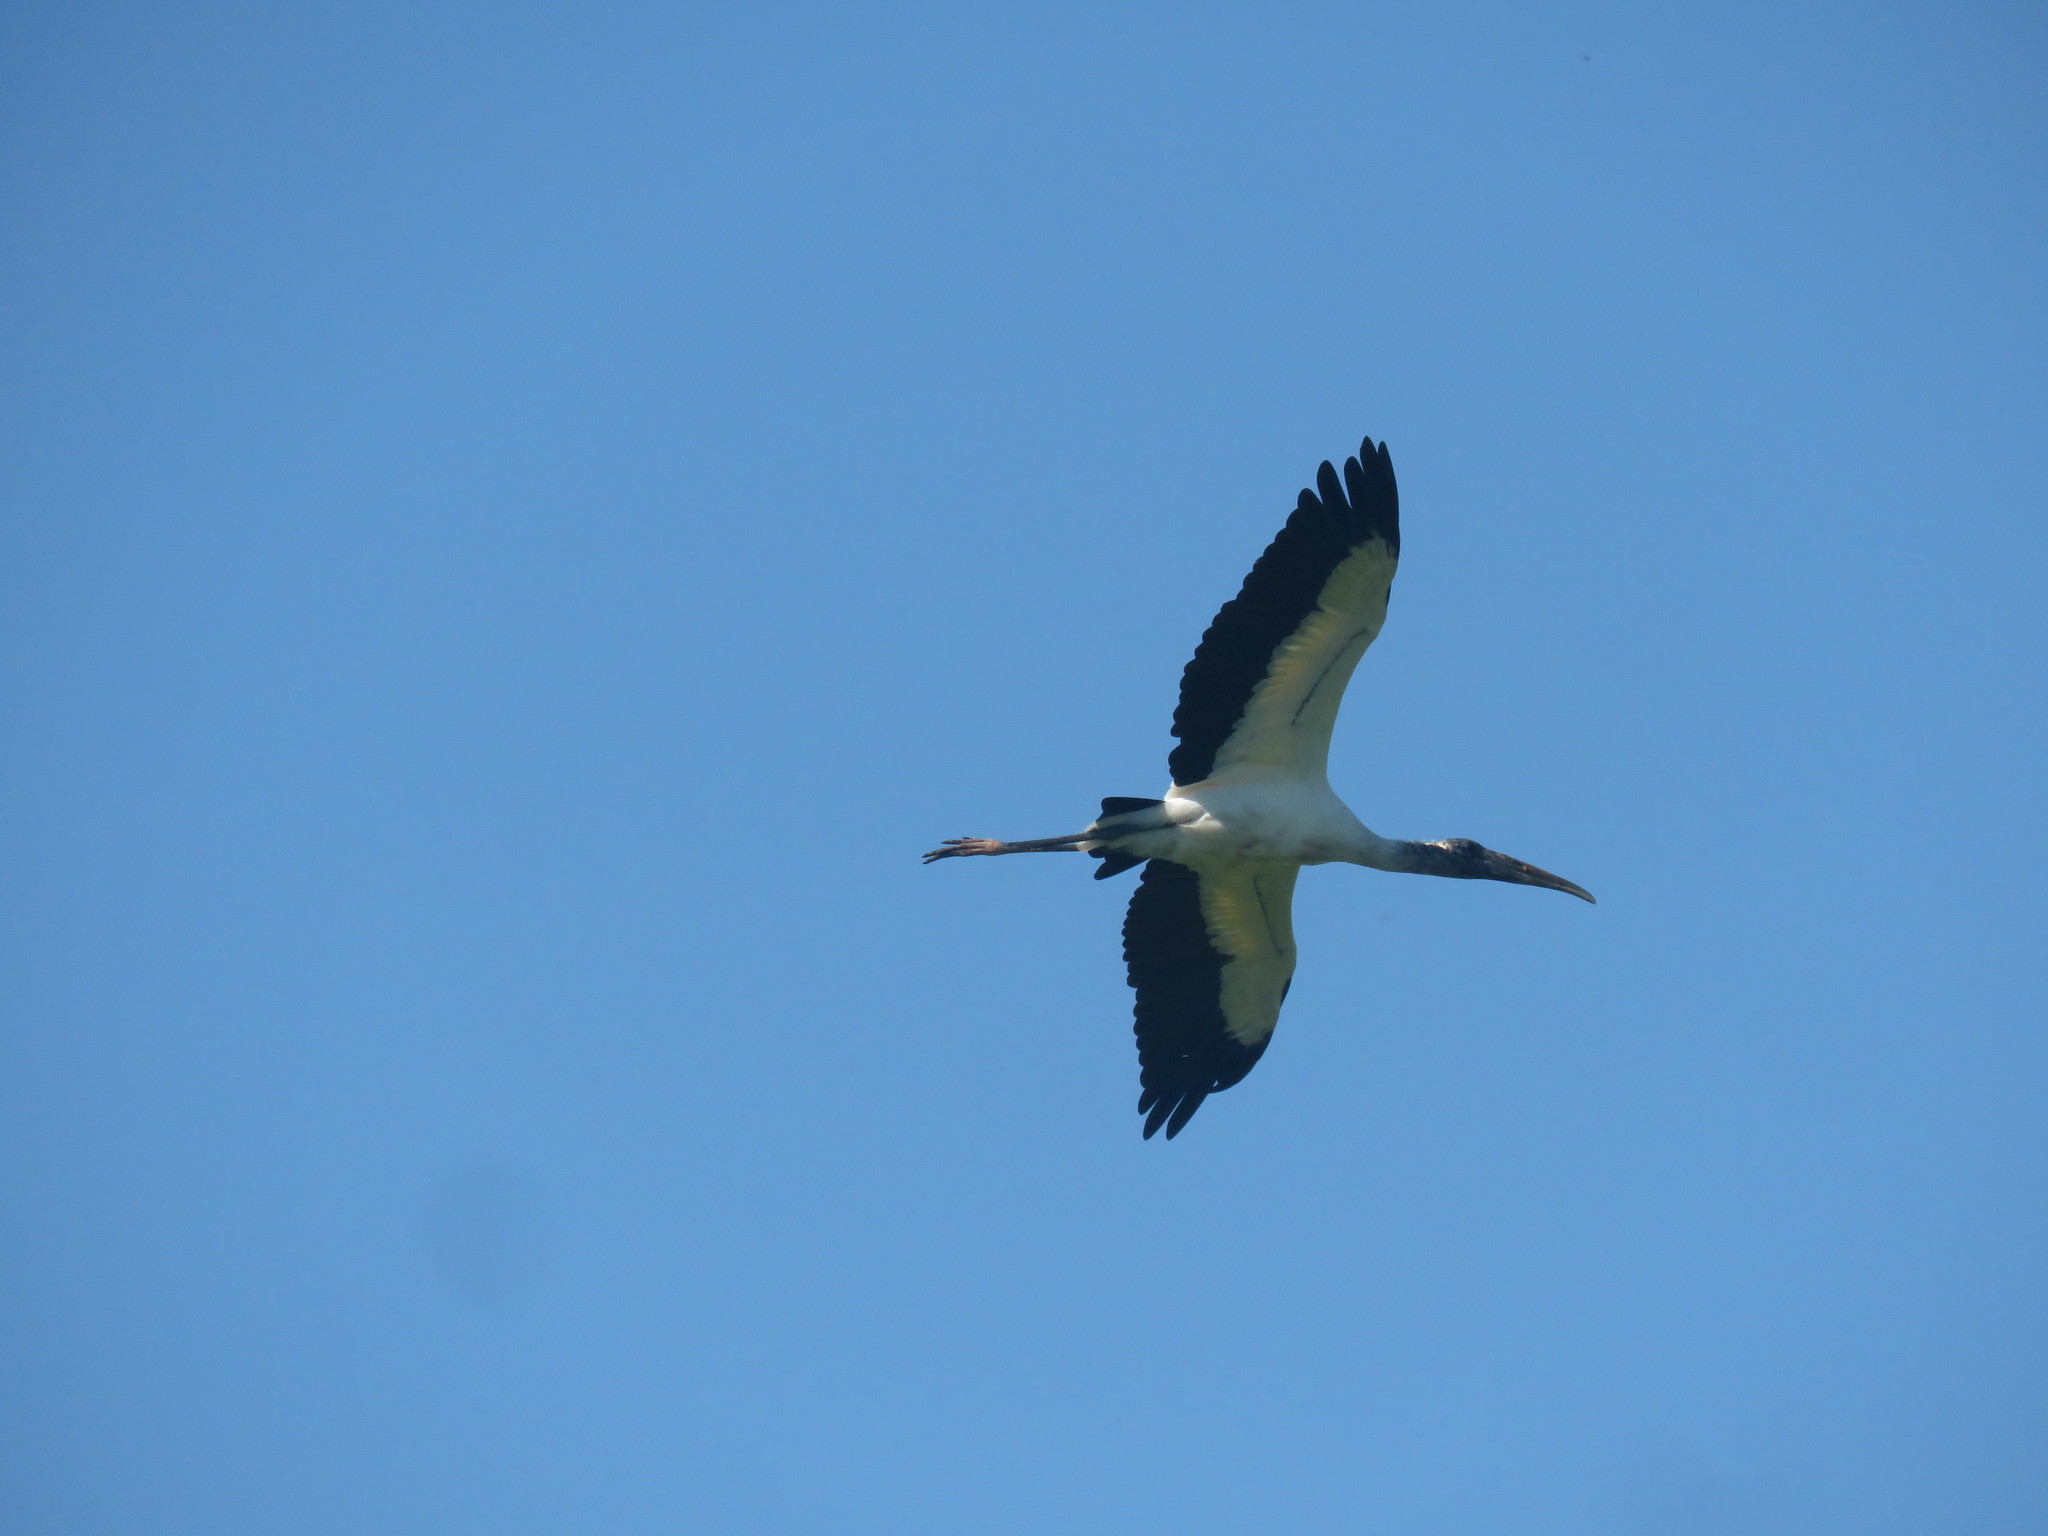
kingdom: Animalia
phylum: Chordata
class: Aves
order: Ciconiiformes
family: Ciconiidae
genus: Mycteria
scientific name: Mycteria americana
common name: Wood stork
